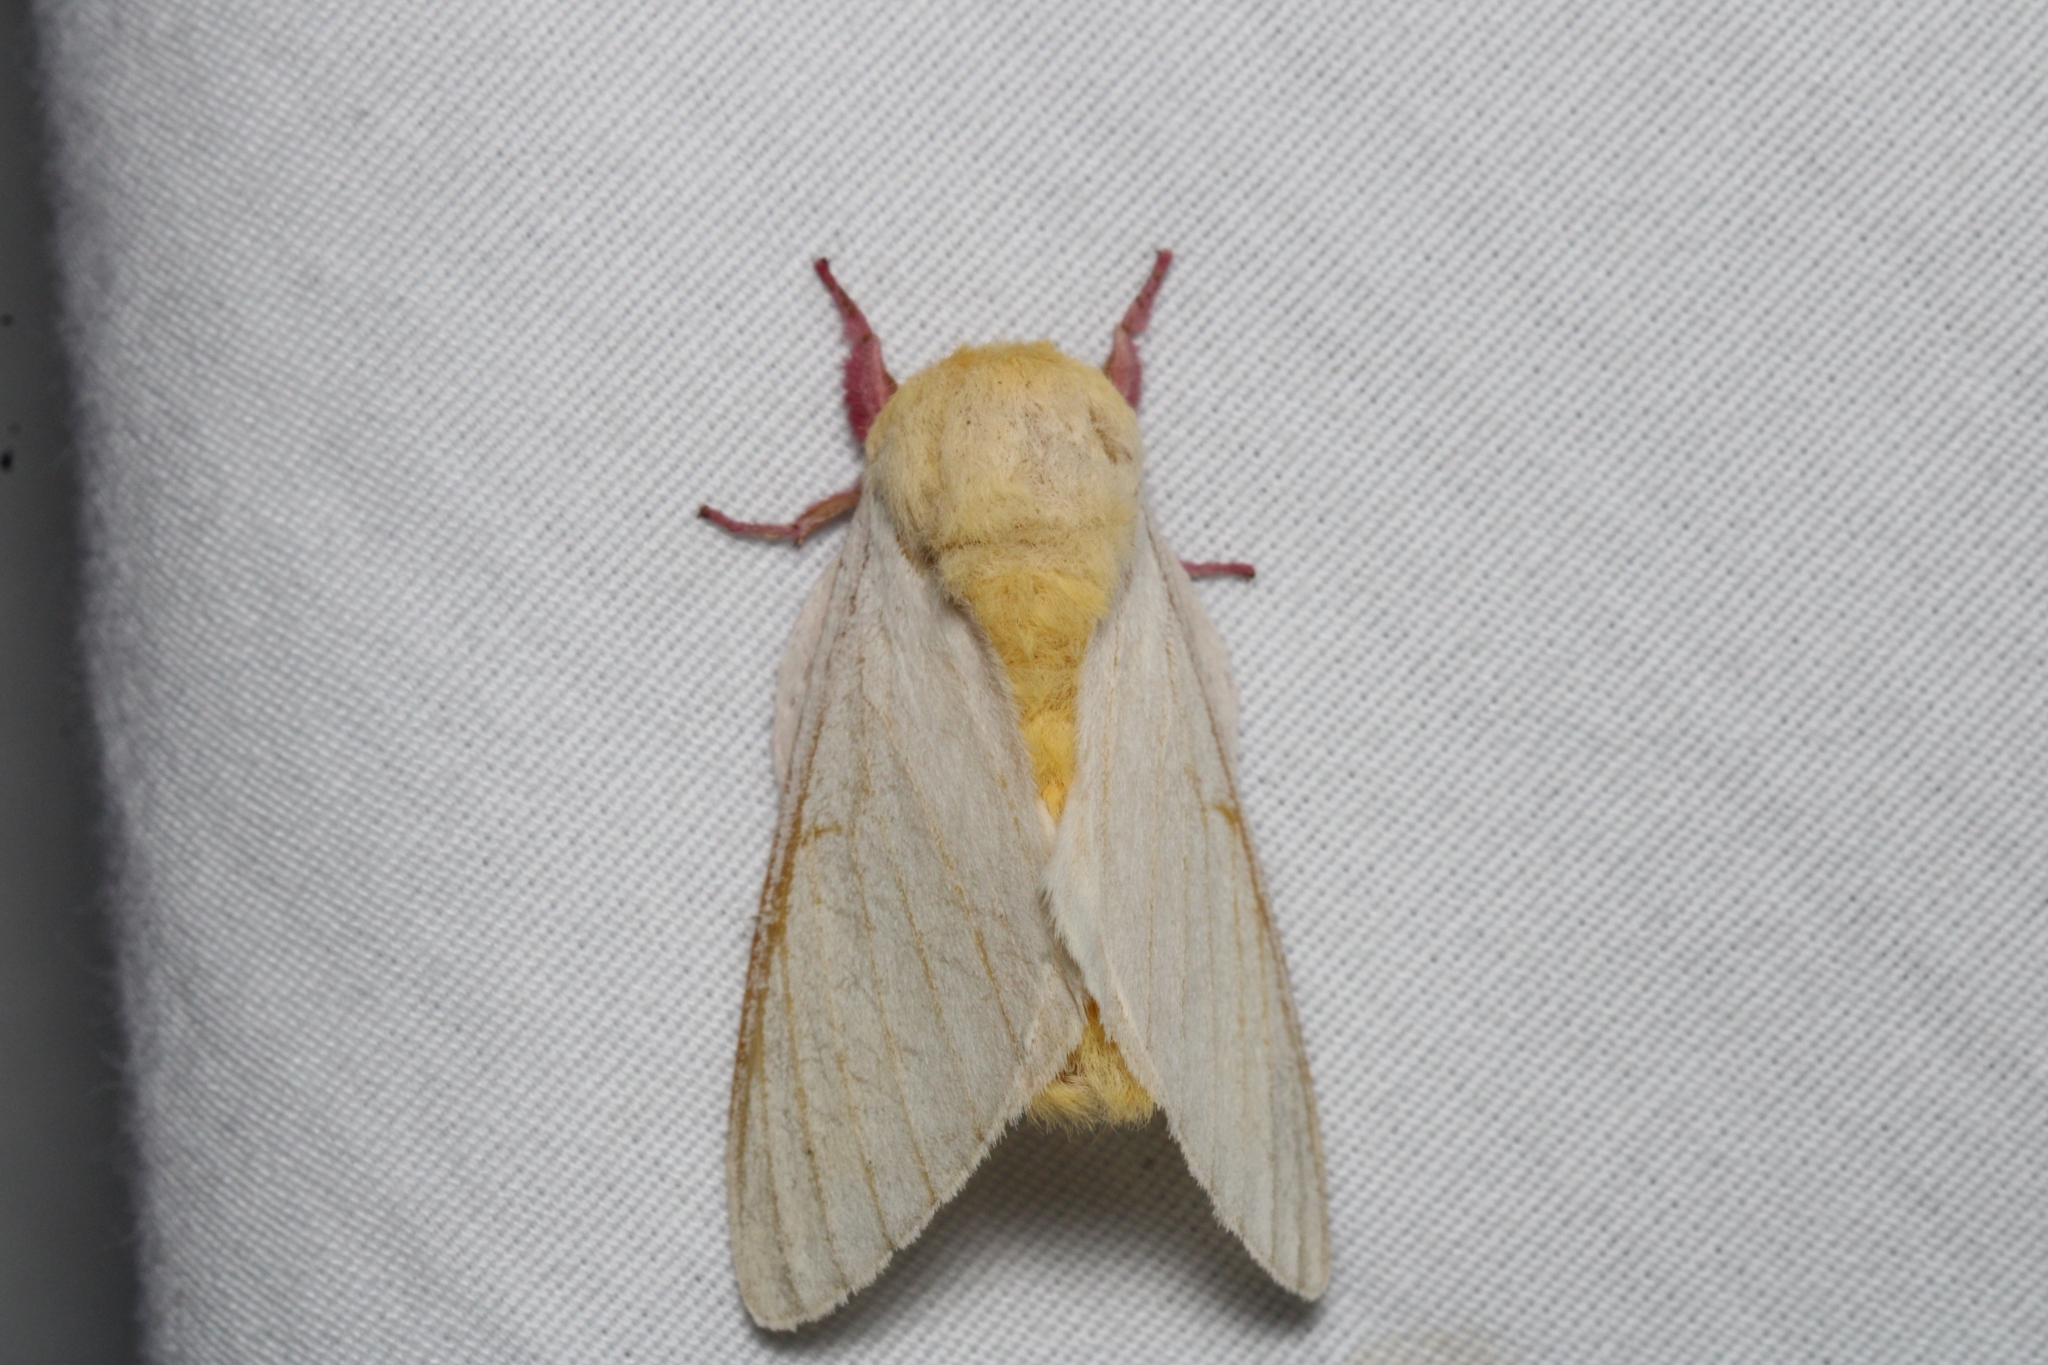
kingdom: Animalia
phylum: Arthropoda
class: Insecta
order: Lepidoptera
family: Saturniidae
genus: Dryocampa
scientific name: Dryocampa rubicunda
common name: Rosy maple moth
